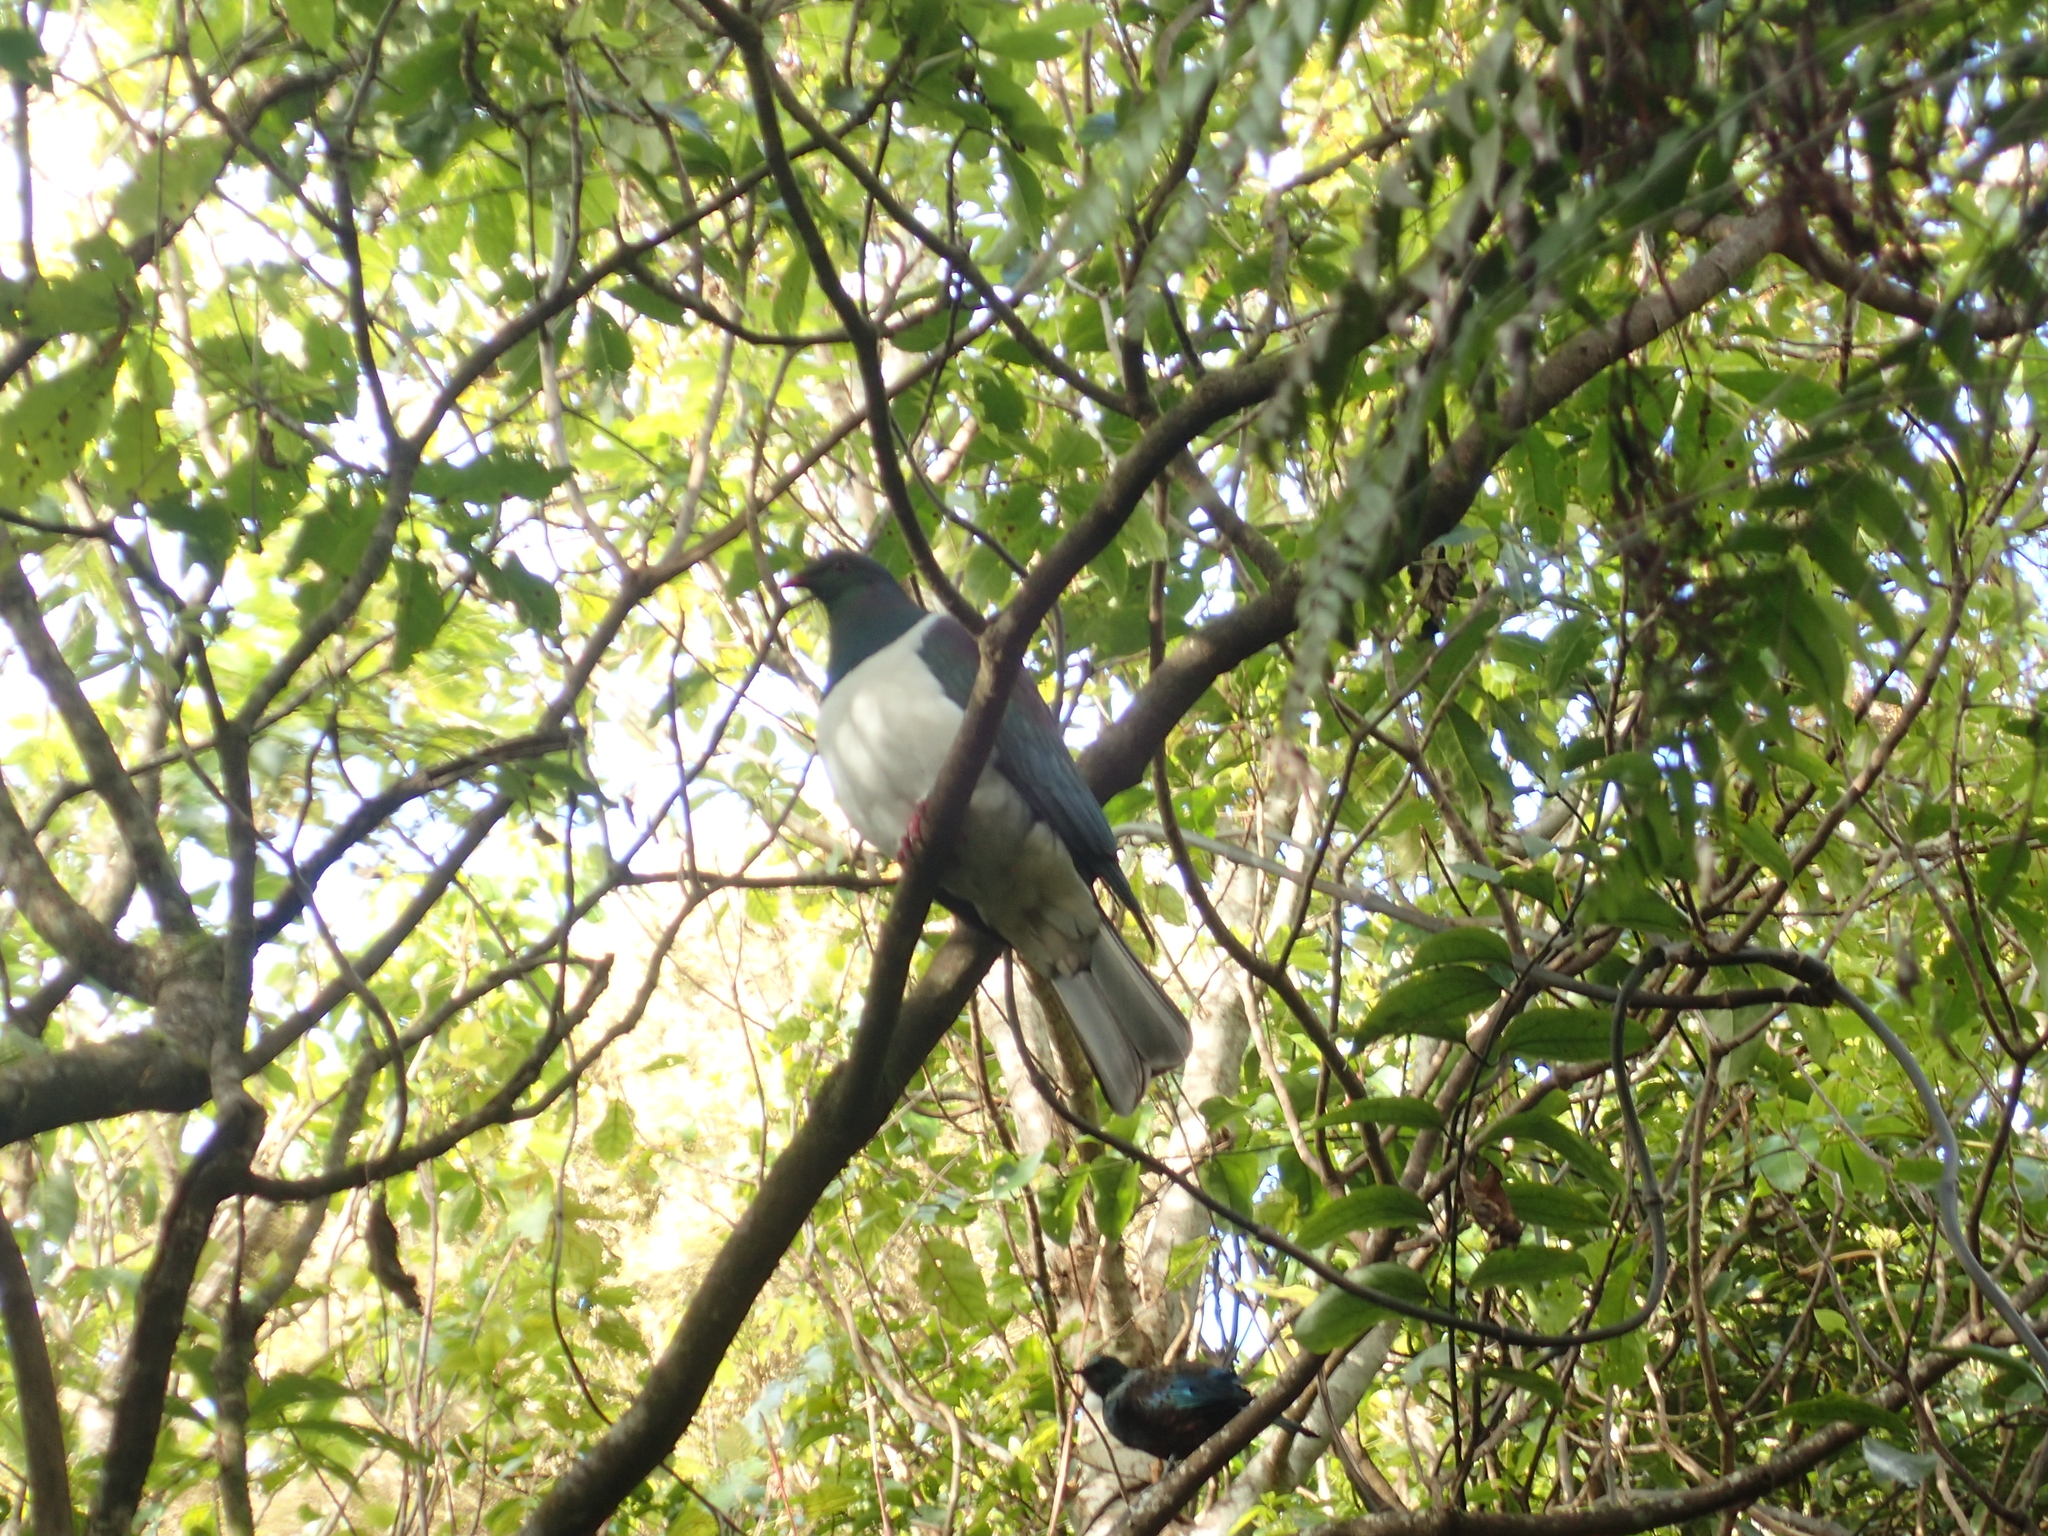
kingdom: Animalia
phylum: Chordata
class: Aves
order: Columbiformes
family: Columbidae
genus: Hemiphaga
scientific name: Hemiphaga novaeseelandiae
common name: New zealand pigeon
